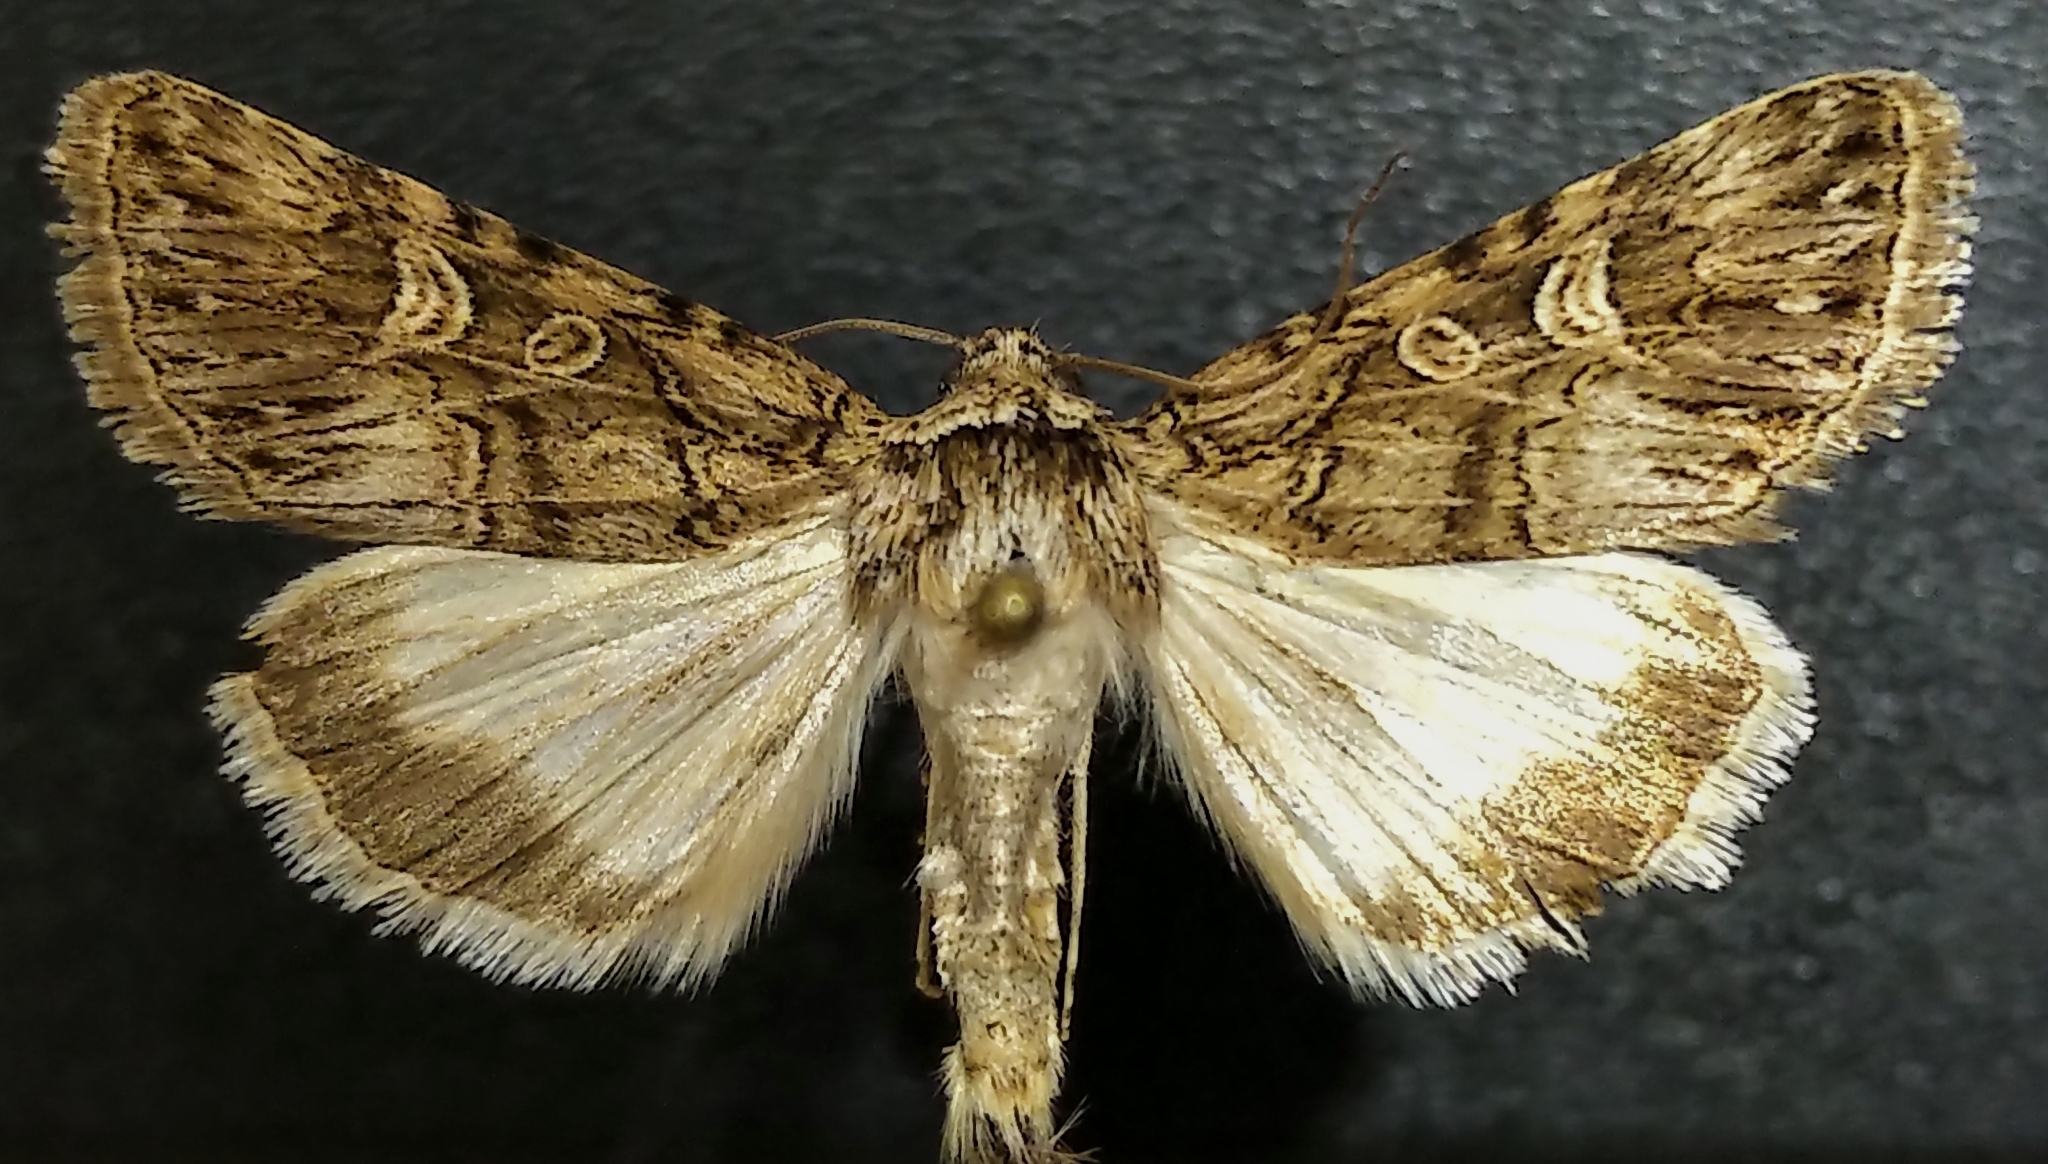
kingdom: Animalia
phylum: Arthropoda
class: Insecta
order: Lepidoptera
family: Noctuidae
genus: Sympistis
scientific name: Sympistis insanina
